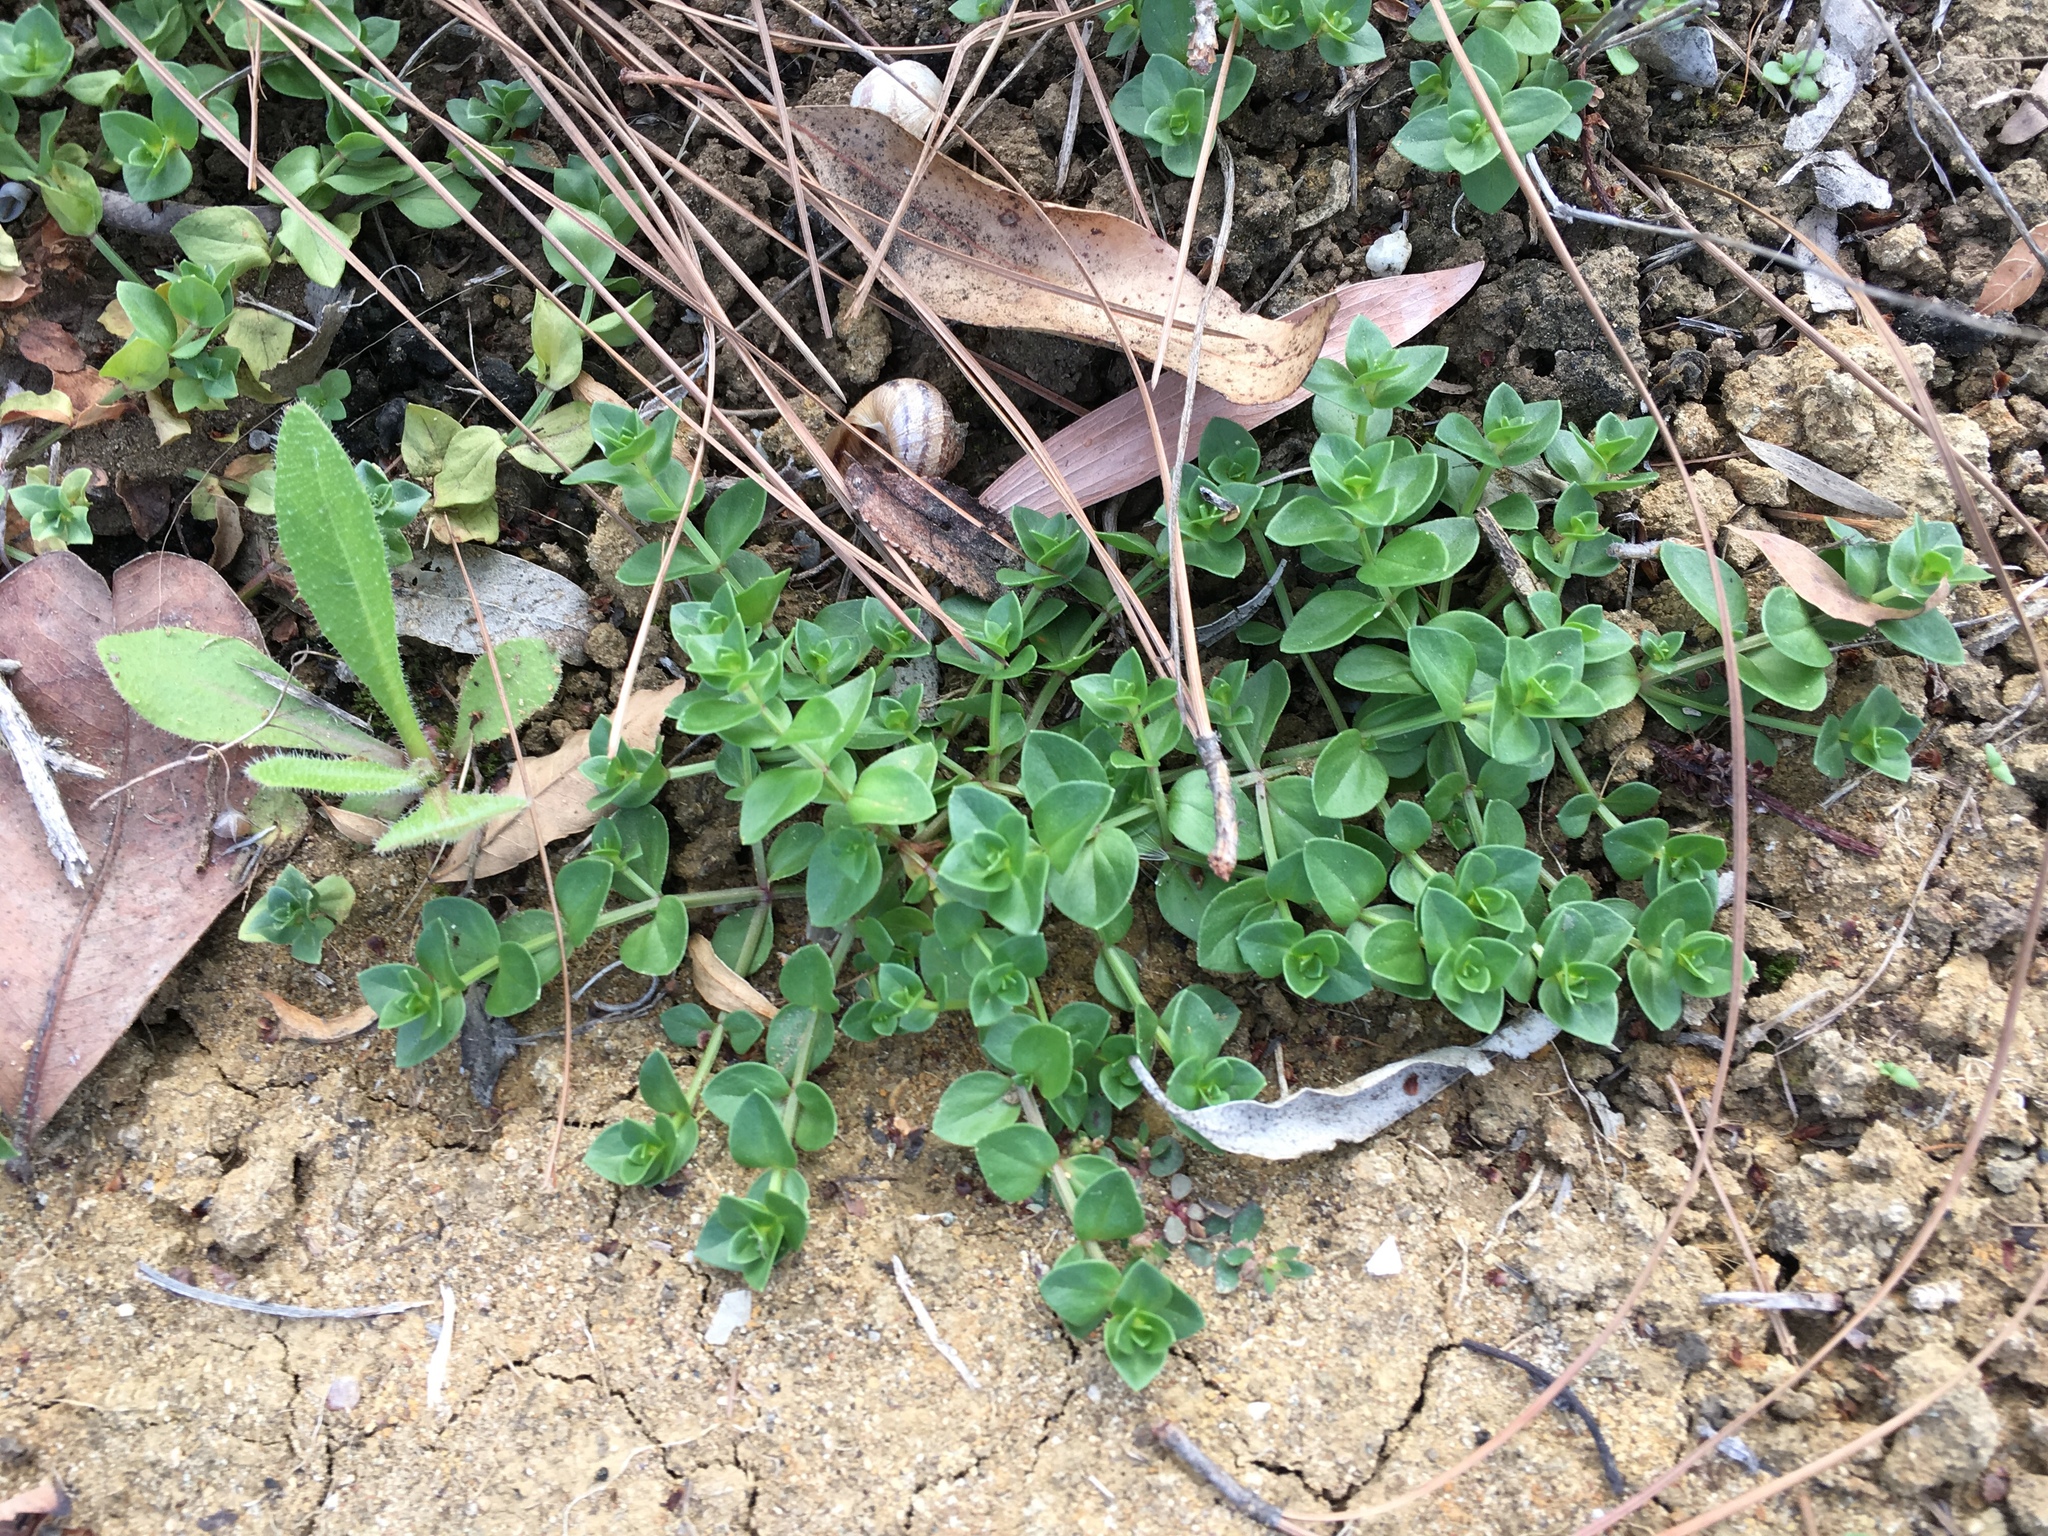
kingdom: Plantae
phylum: Tracheophyta
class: Magnoliopsida
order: Ericales
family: Primulaceae
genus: Lysimachia
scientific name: Lysimachia arvensis
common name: Scarlet pimpernel
